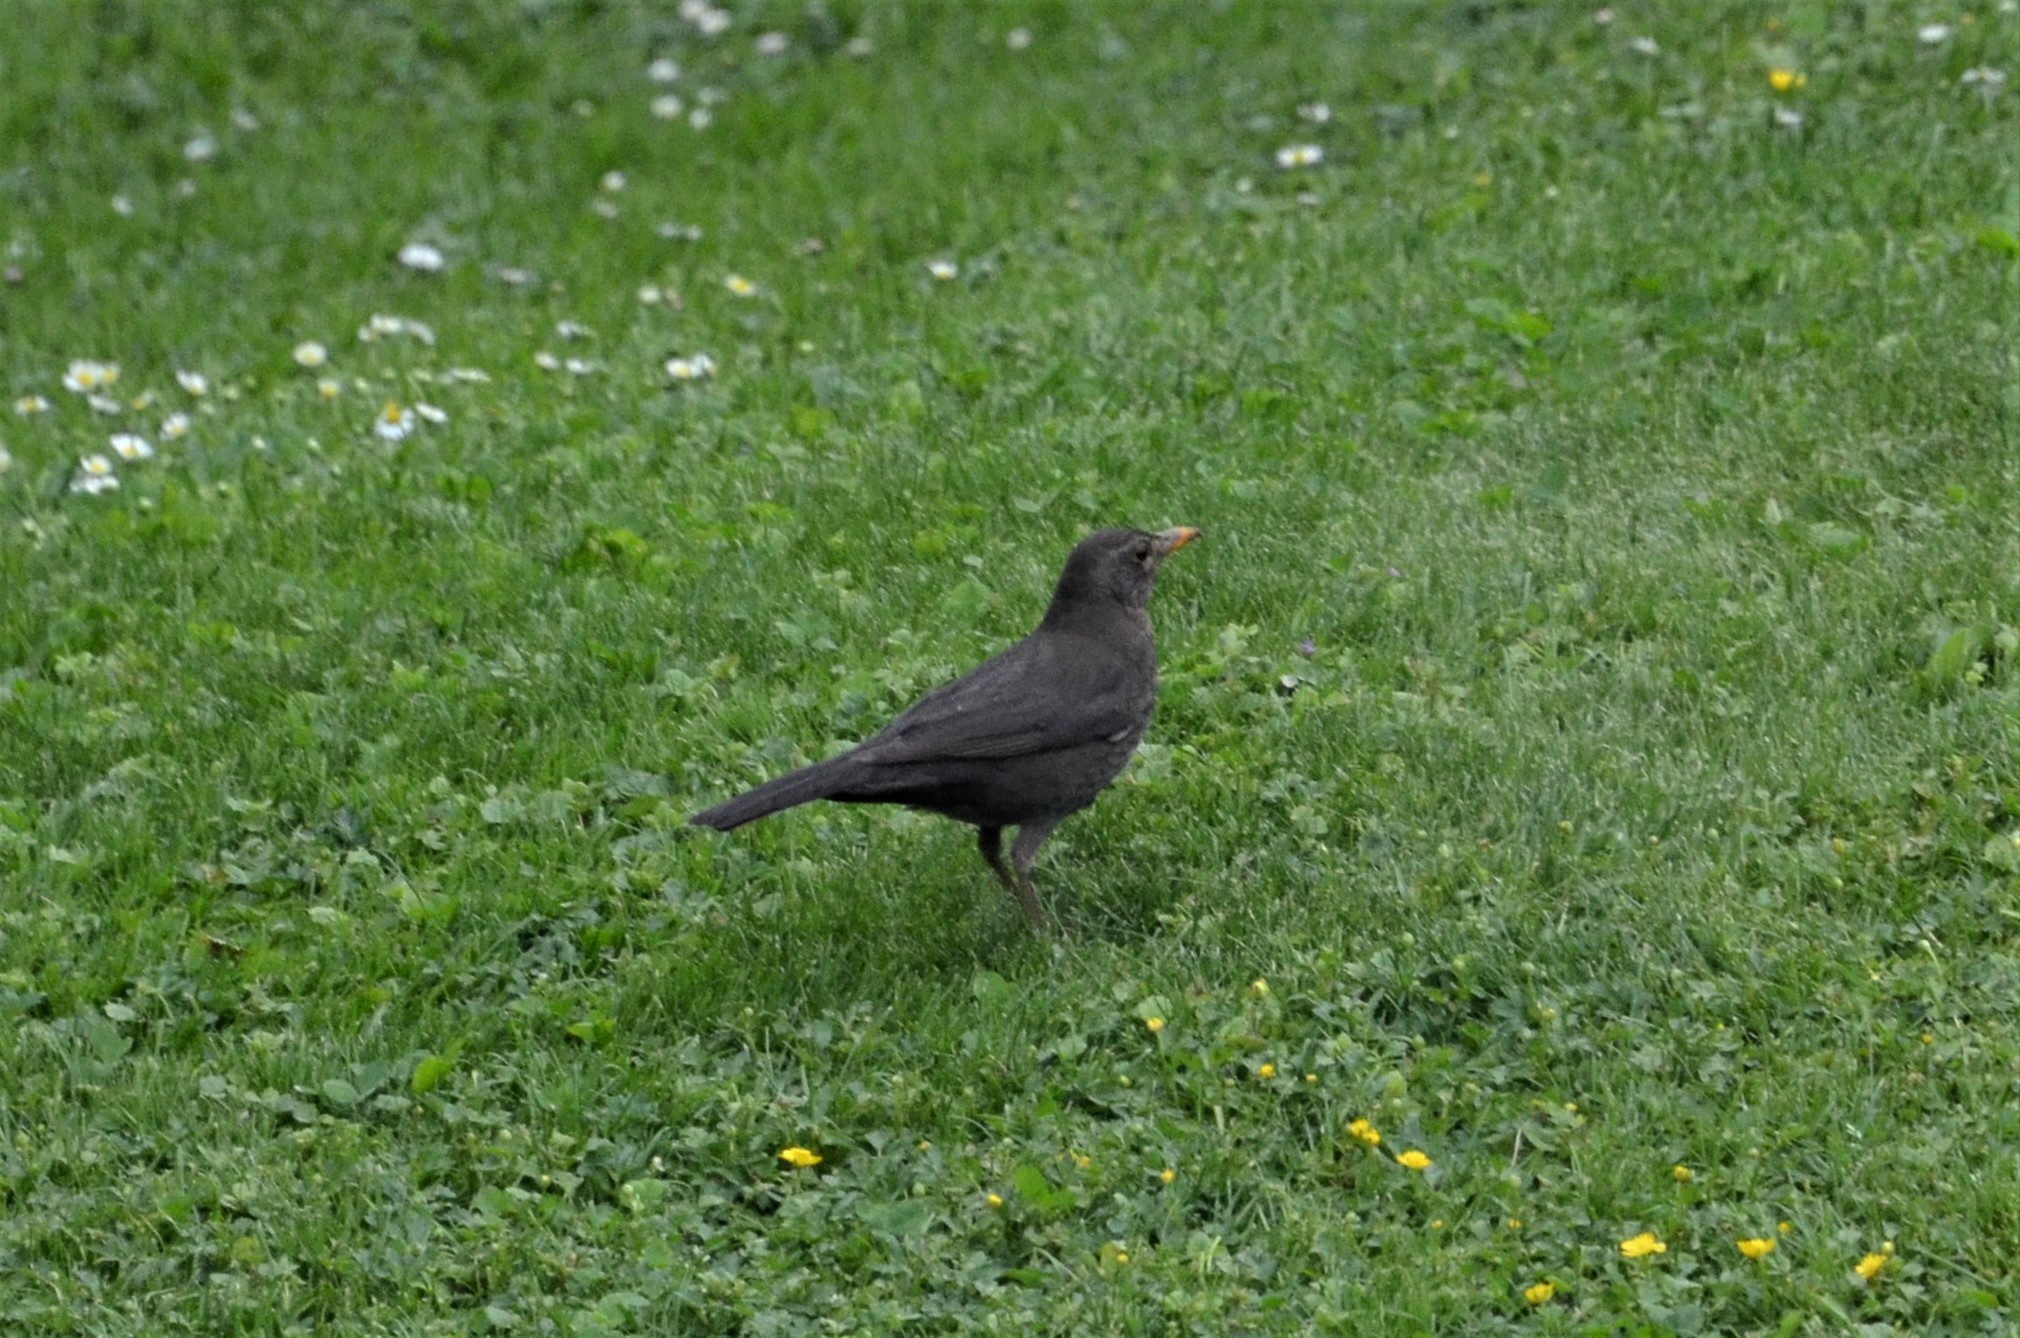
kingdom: Animalia
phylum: Chordata
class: Aves
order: Passeriformes
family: Turdidae
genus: Turdus
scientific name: Turdus merula
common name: Common blackbird
